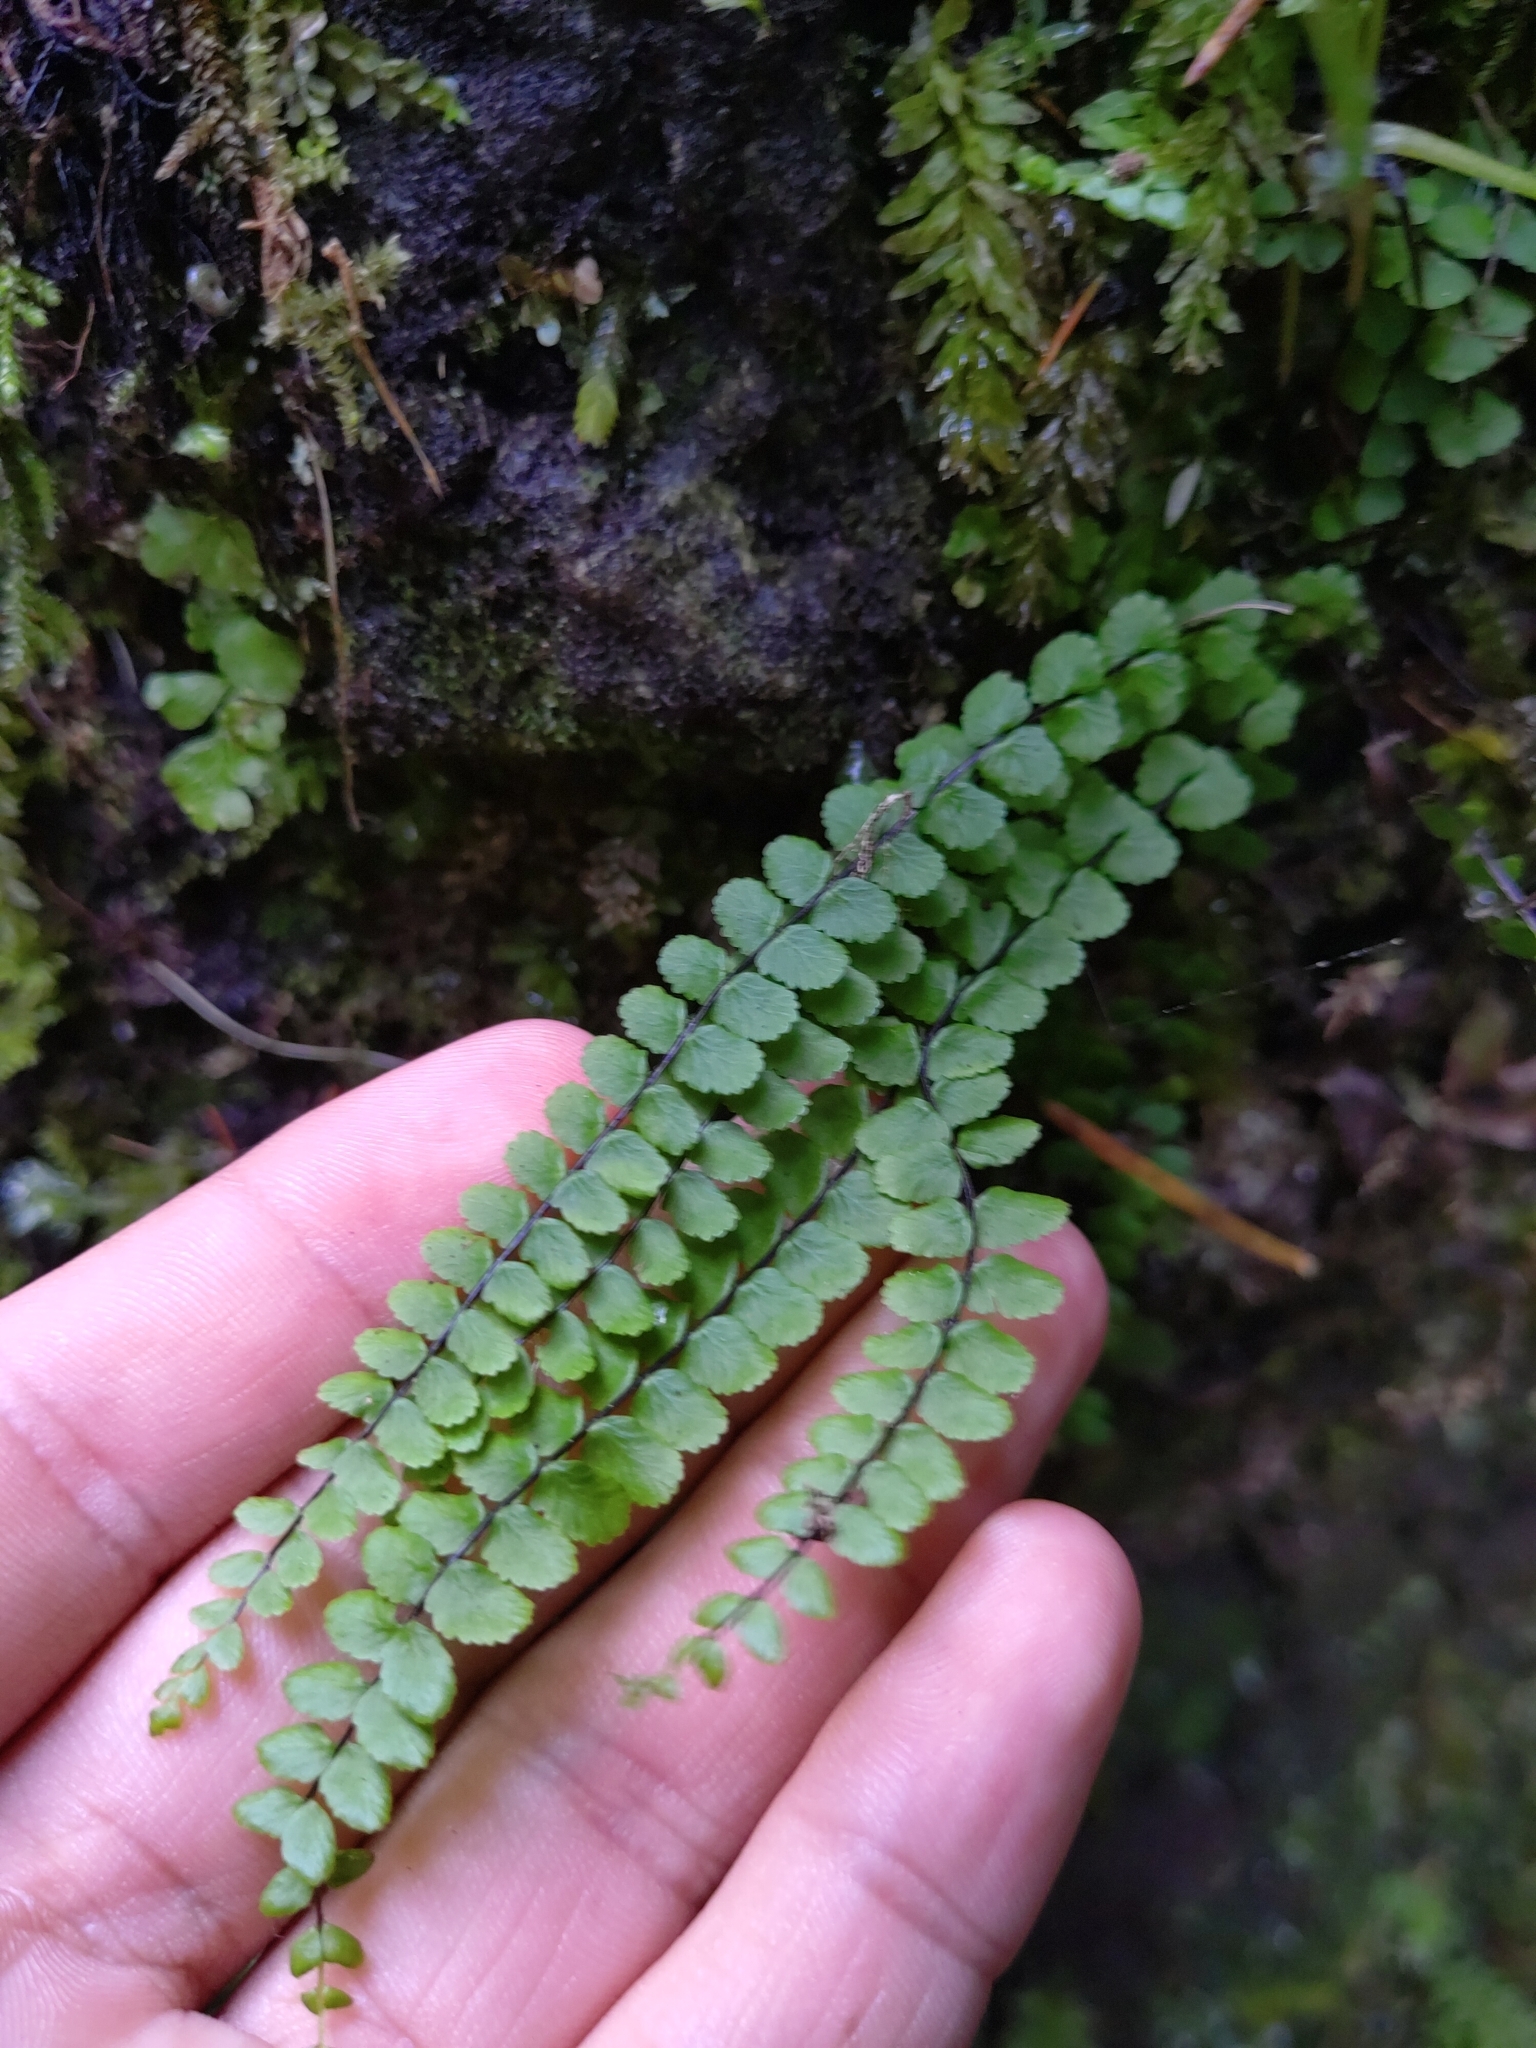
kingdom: Plantae
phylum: Tracheophyta
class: Polypodiopsida
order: Polypodiales
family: Aspleniaceae
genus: Asplenium
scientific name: Asplenium trichomanes
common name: Maidenhair spleenwort
